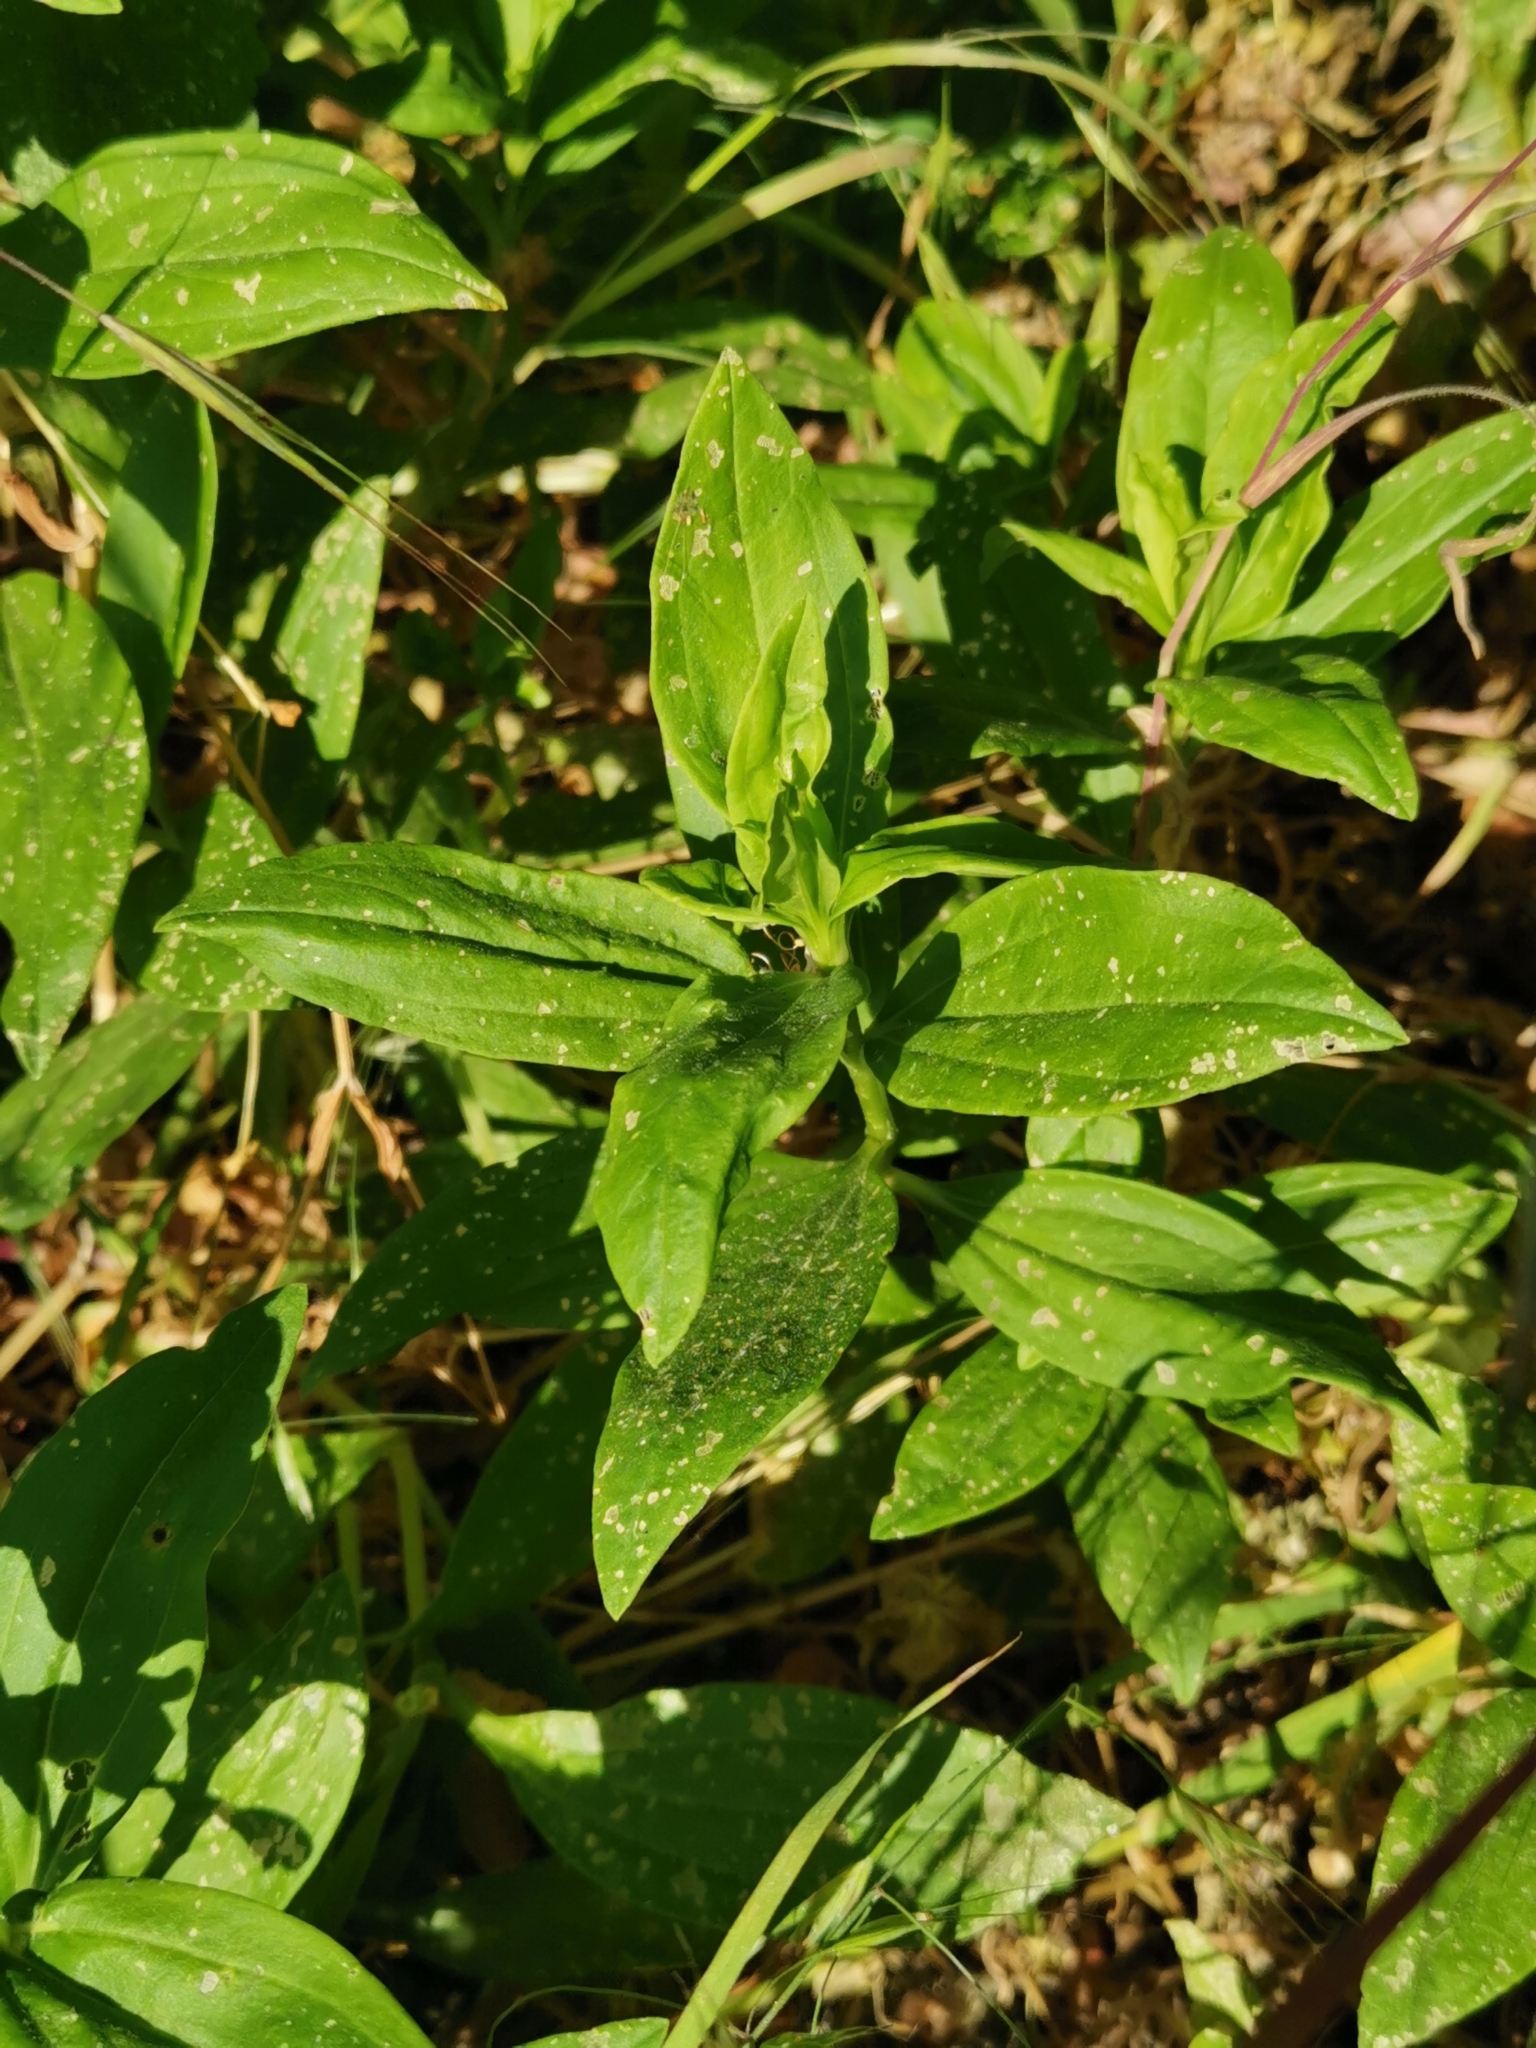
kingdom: Plantae
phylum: Tracheophyta
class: Magnoliopsida
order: Caryophyllales
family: Caryophyllaceae
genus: Saponaria
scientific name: Saponaria officinalis
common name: Soapwort
